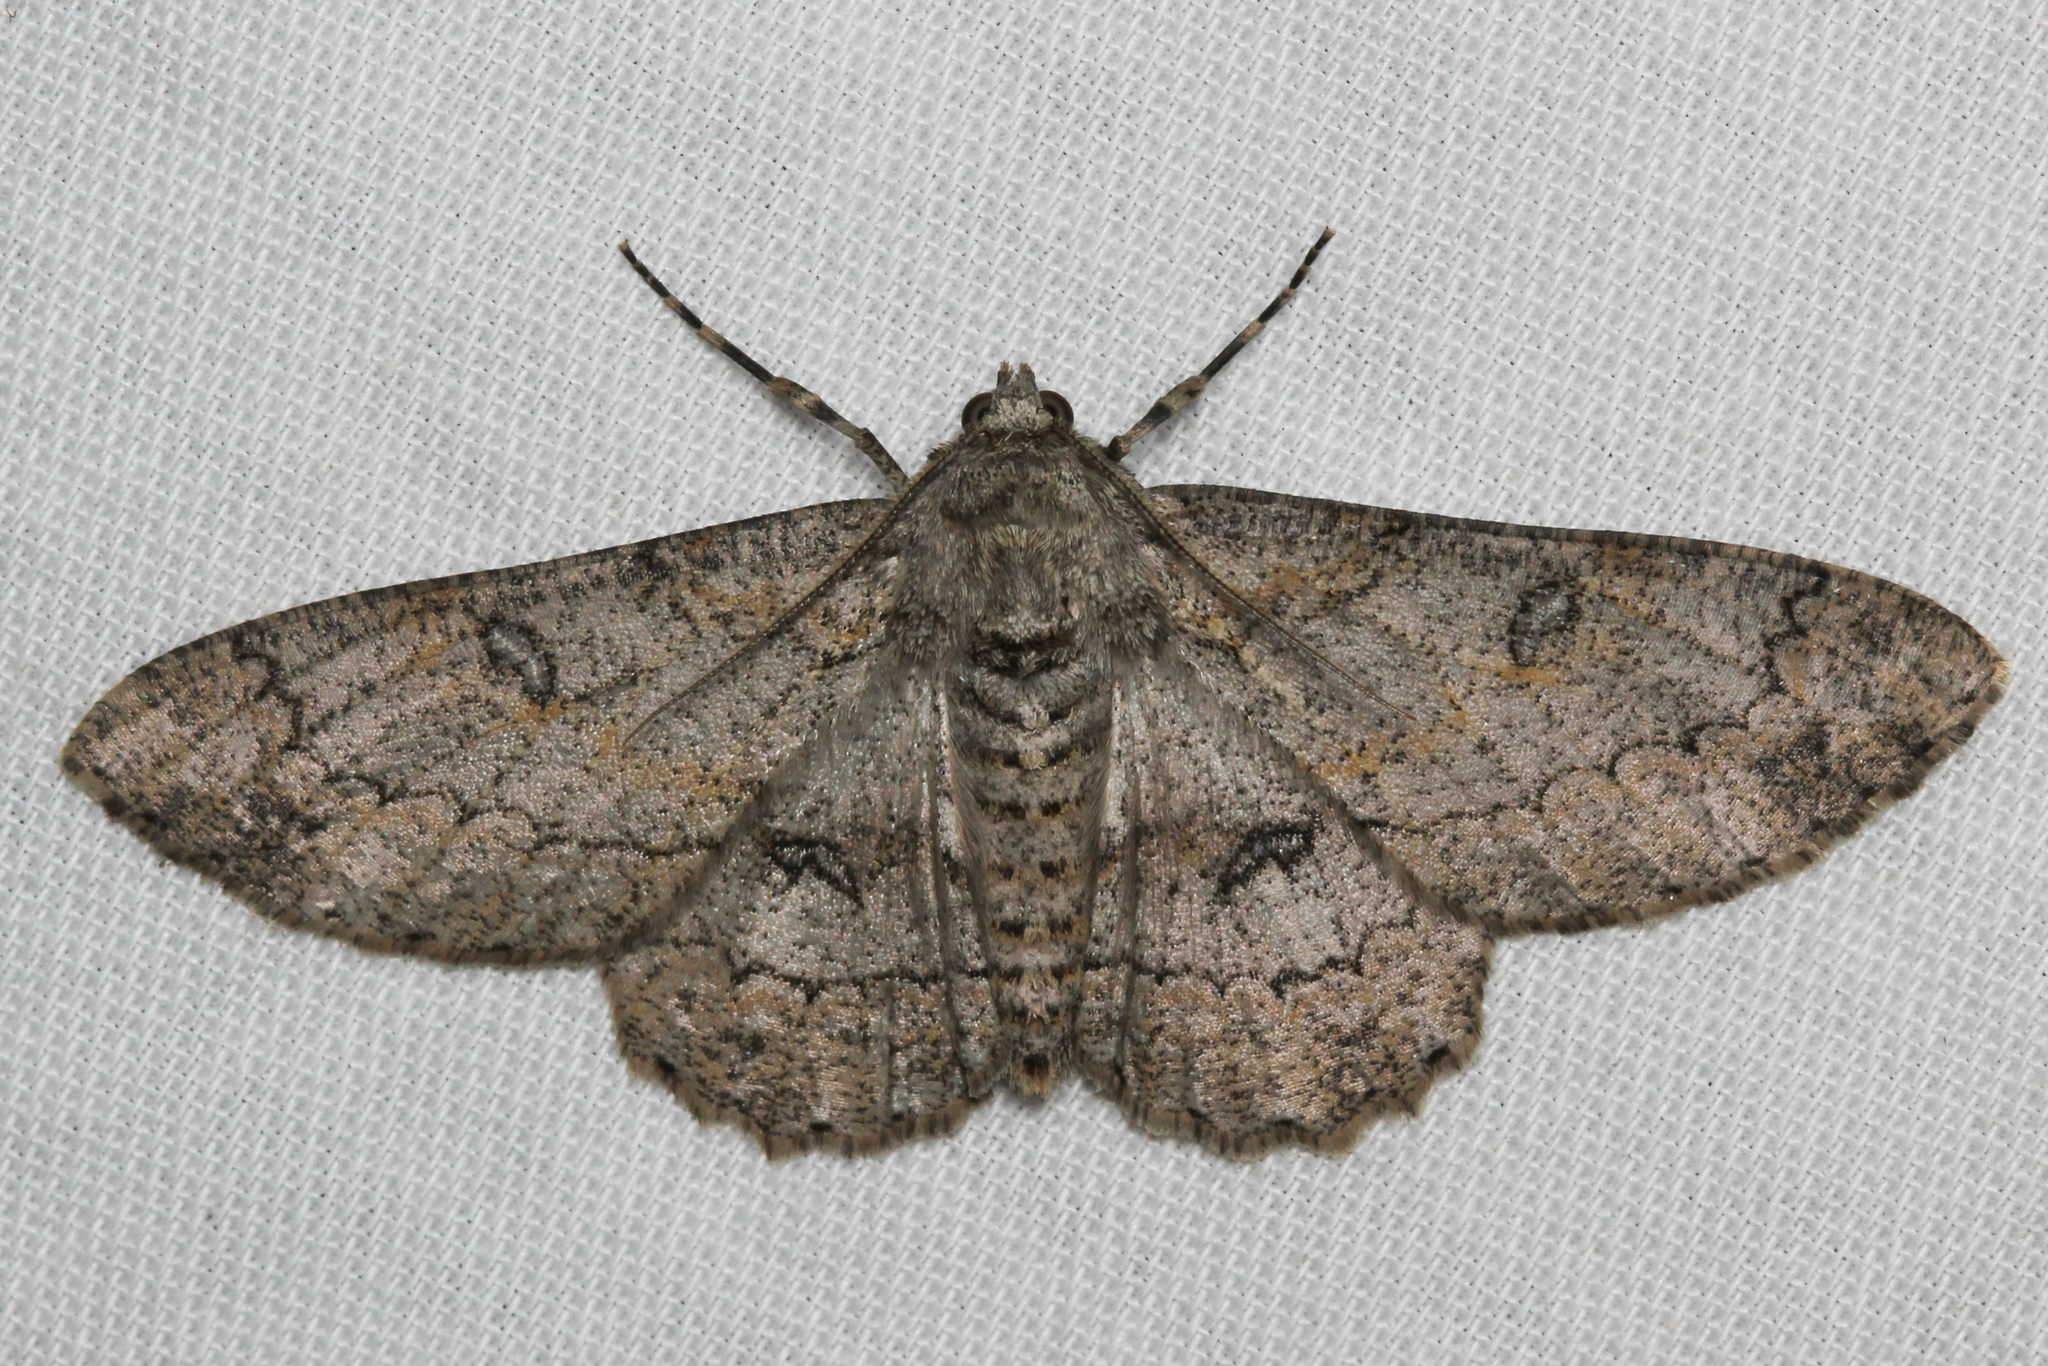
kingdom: Animalia
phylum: Arthropoda
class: Insecta
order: Lepidoptera
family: Geometridae
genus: Ascotis
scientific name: Ascotis selenaria
